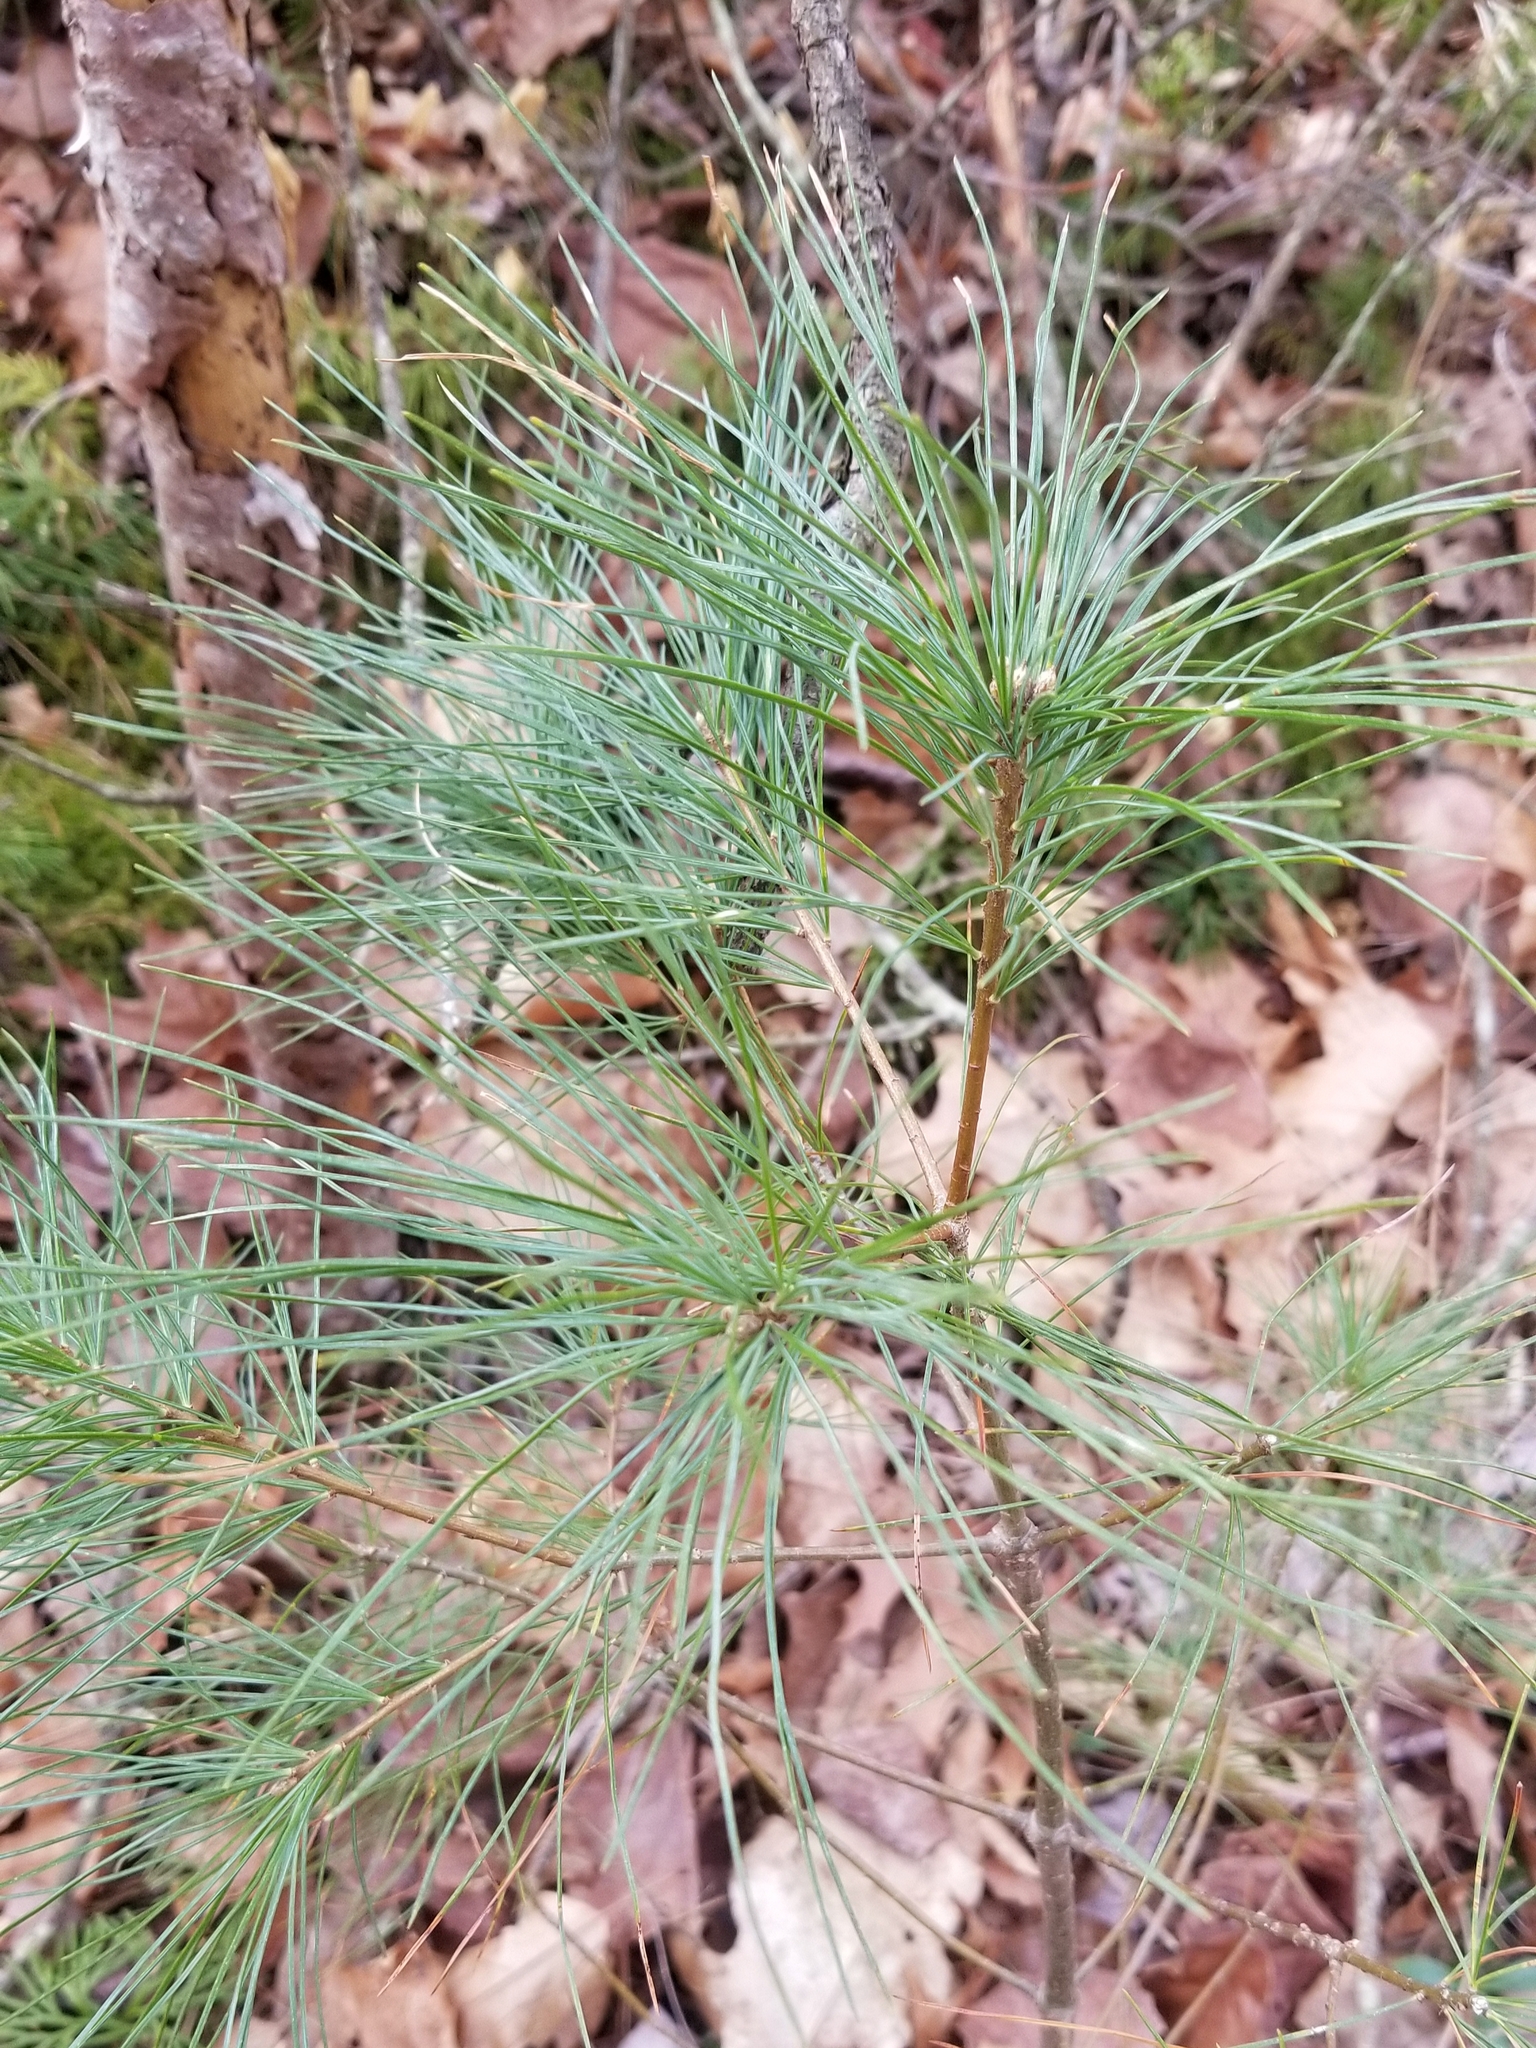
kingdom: Plantae
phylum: Tracheophyta
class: Pinopsida
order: Pinales
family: Pinaceae
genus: Pinus
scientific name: Pinus strobus
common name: Weymouth pine
